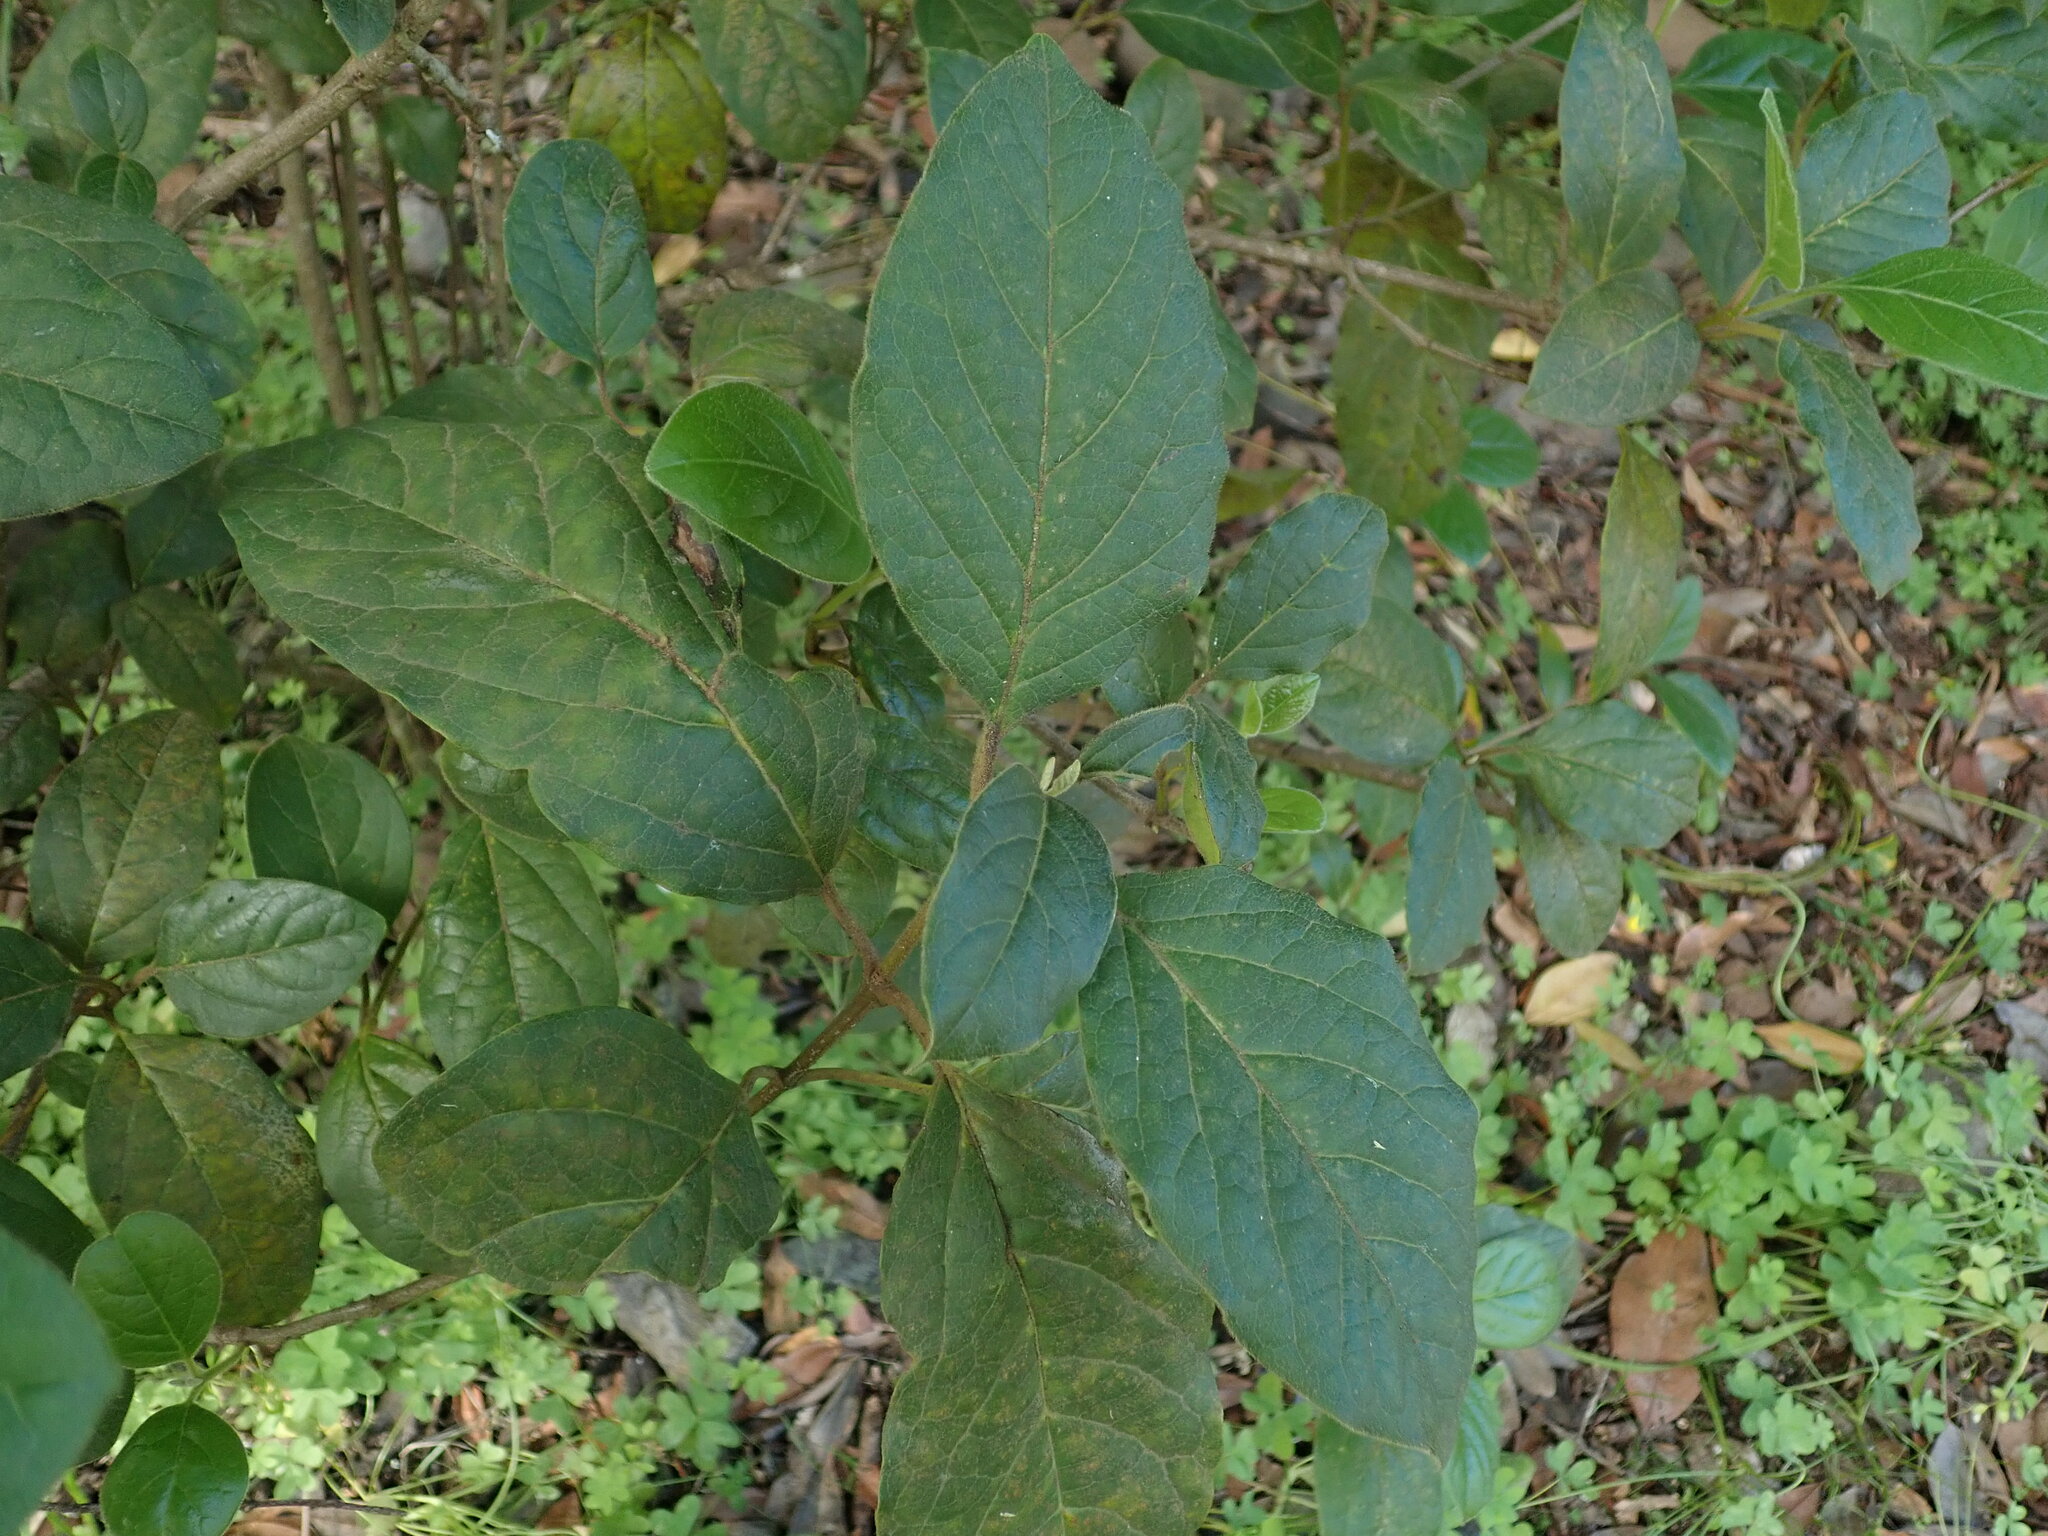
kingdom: Plantae
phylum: Tracheophyta
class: Magnoliopsida
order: Dipsacales
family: Viburnaceae
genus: Viburnum
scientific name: Viburnum rugosum
